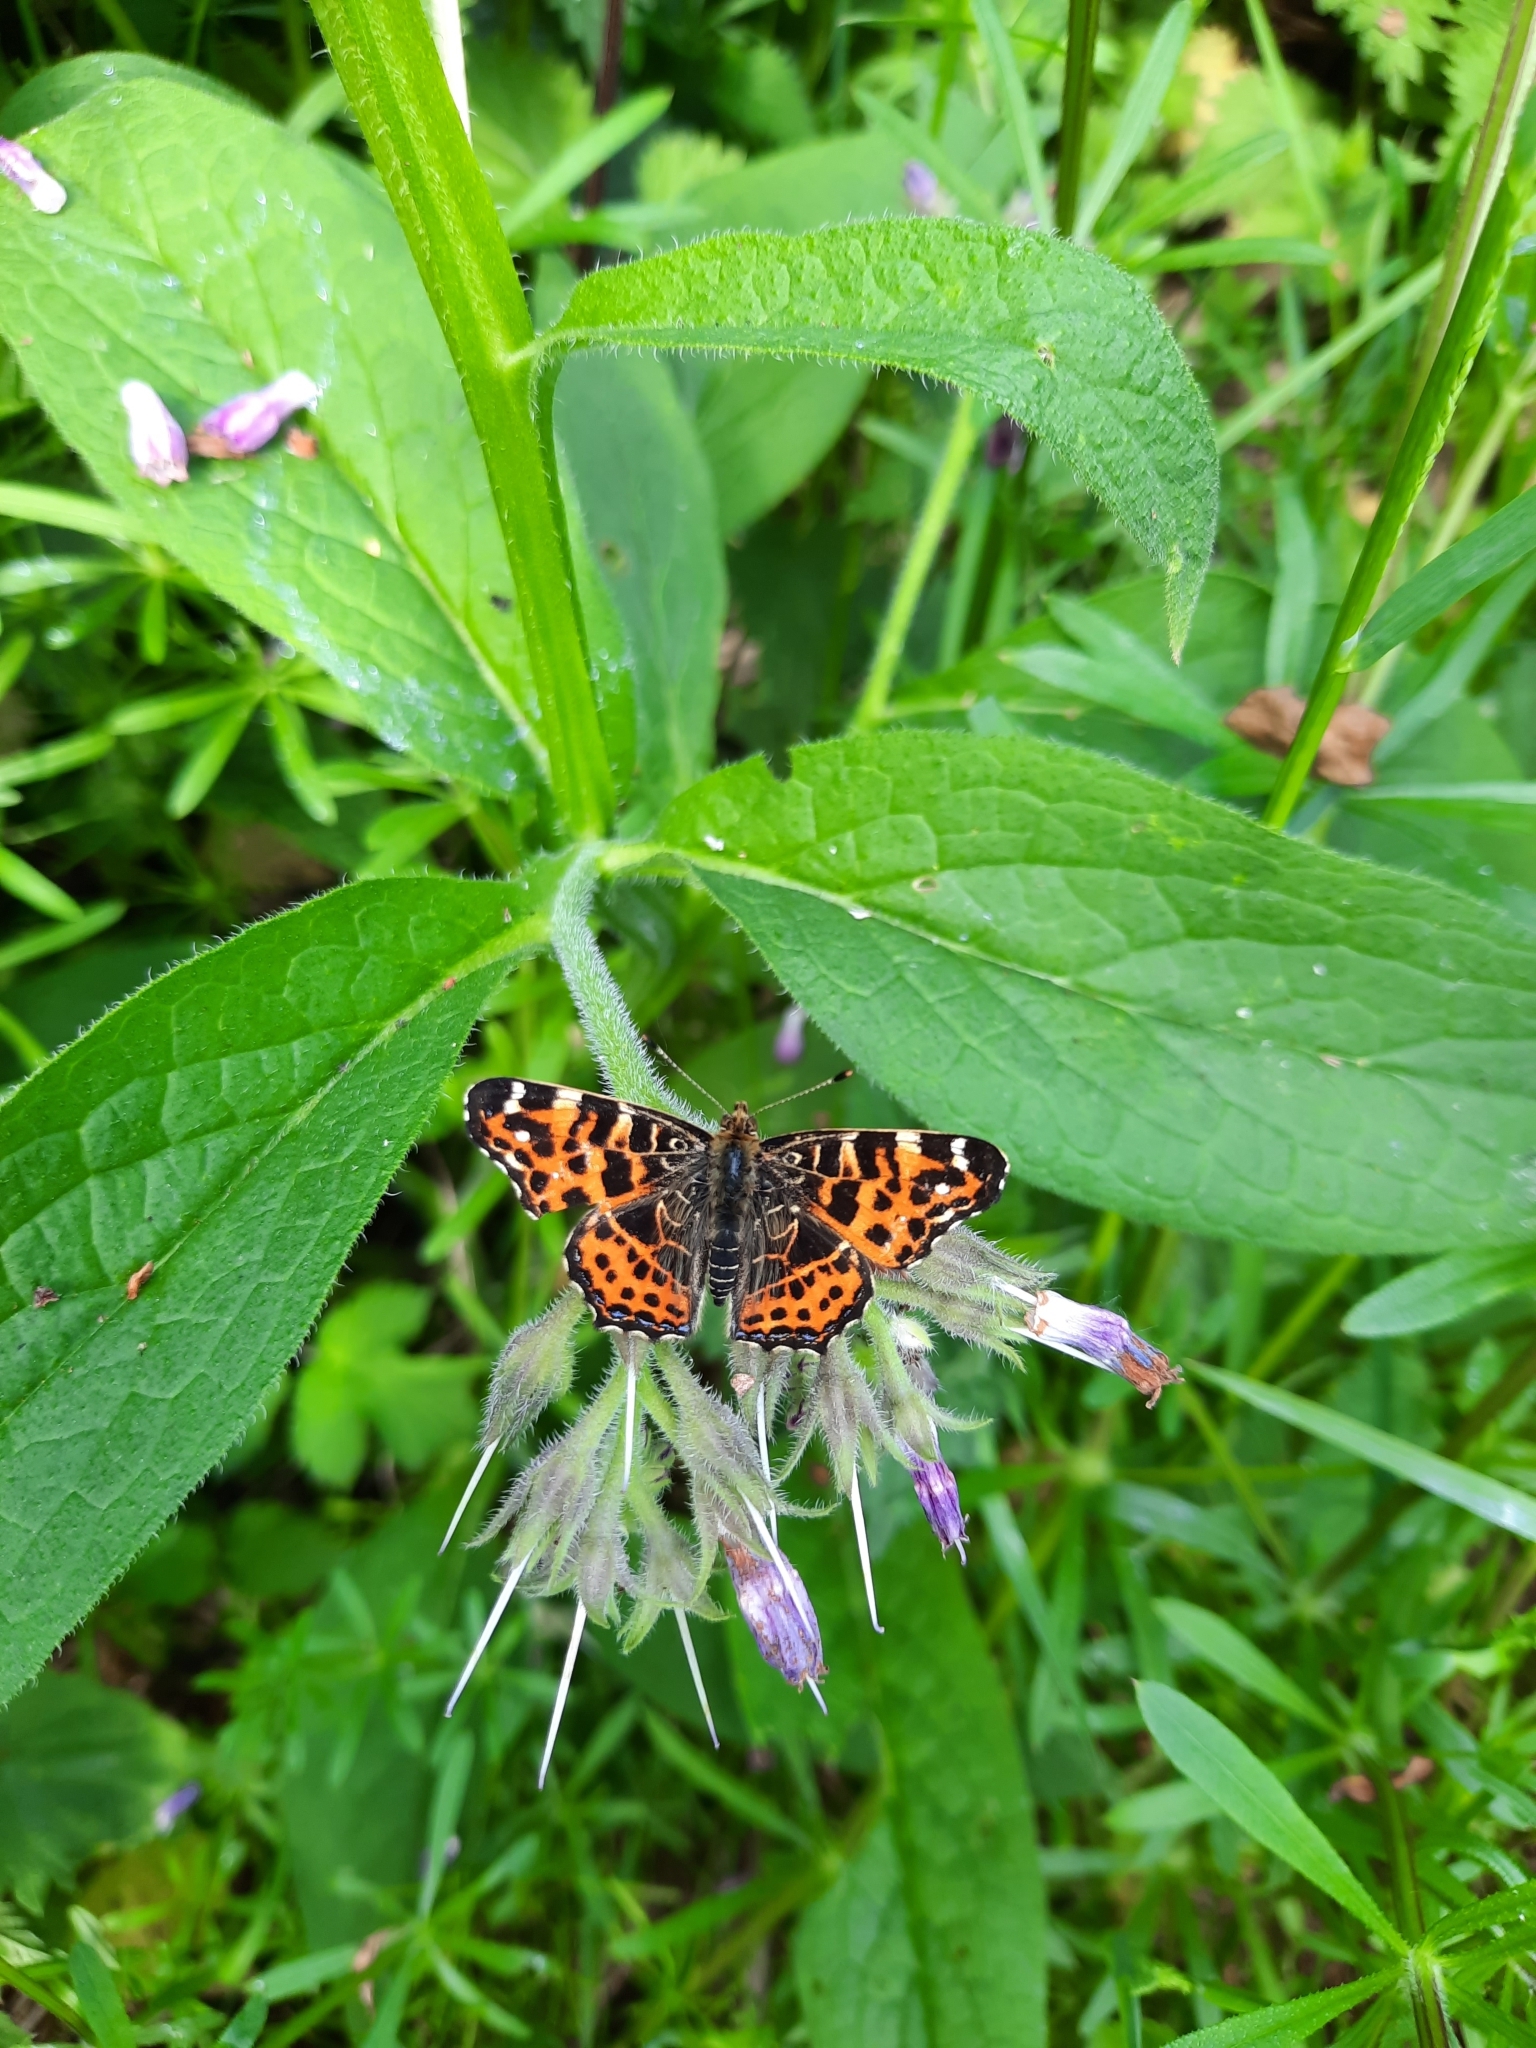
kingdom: Animalia
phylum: Arthropoda
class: Insecta
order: Lepidoptera
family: Nymphalidae
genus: Araschnia
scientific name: Araschnia levana
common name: Map butterfly
